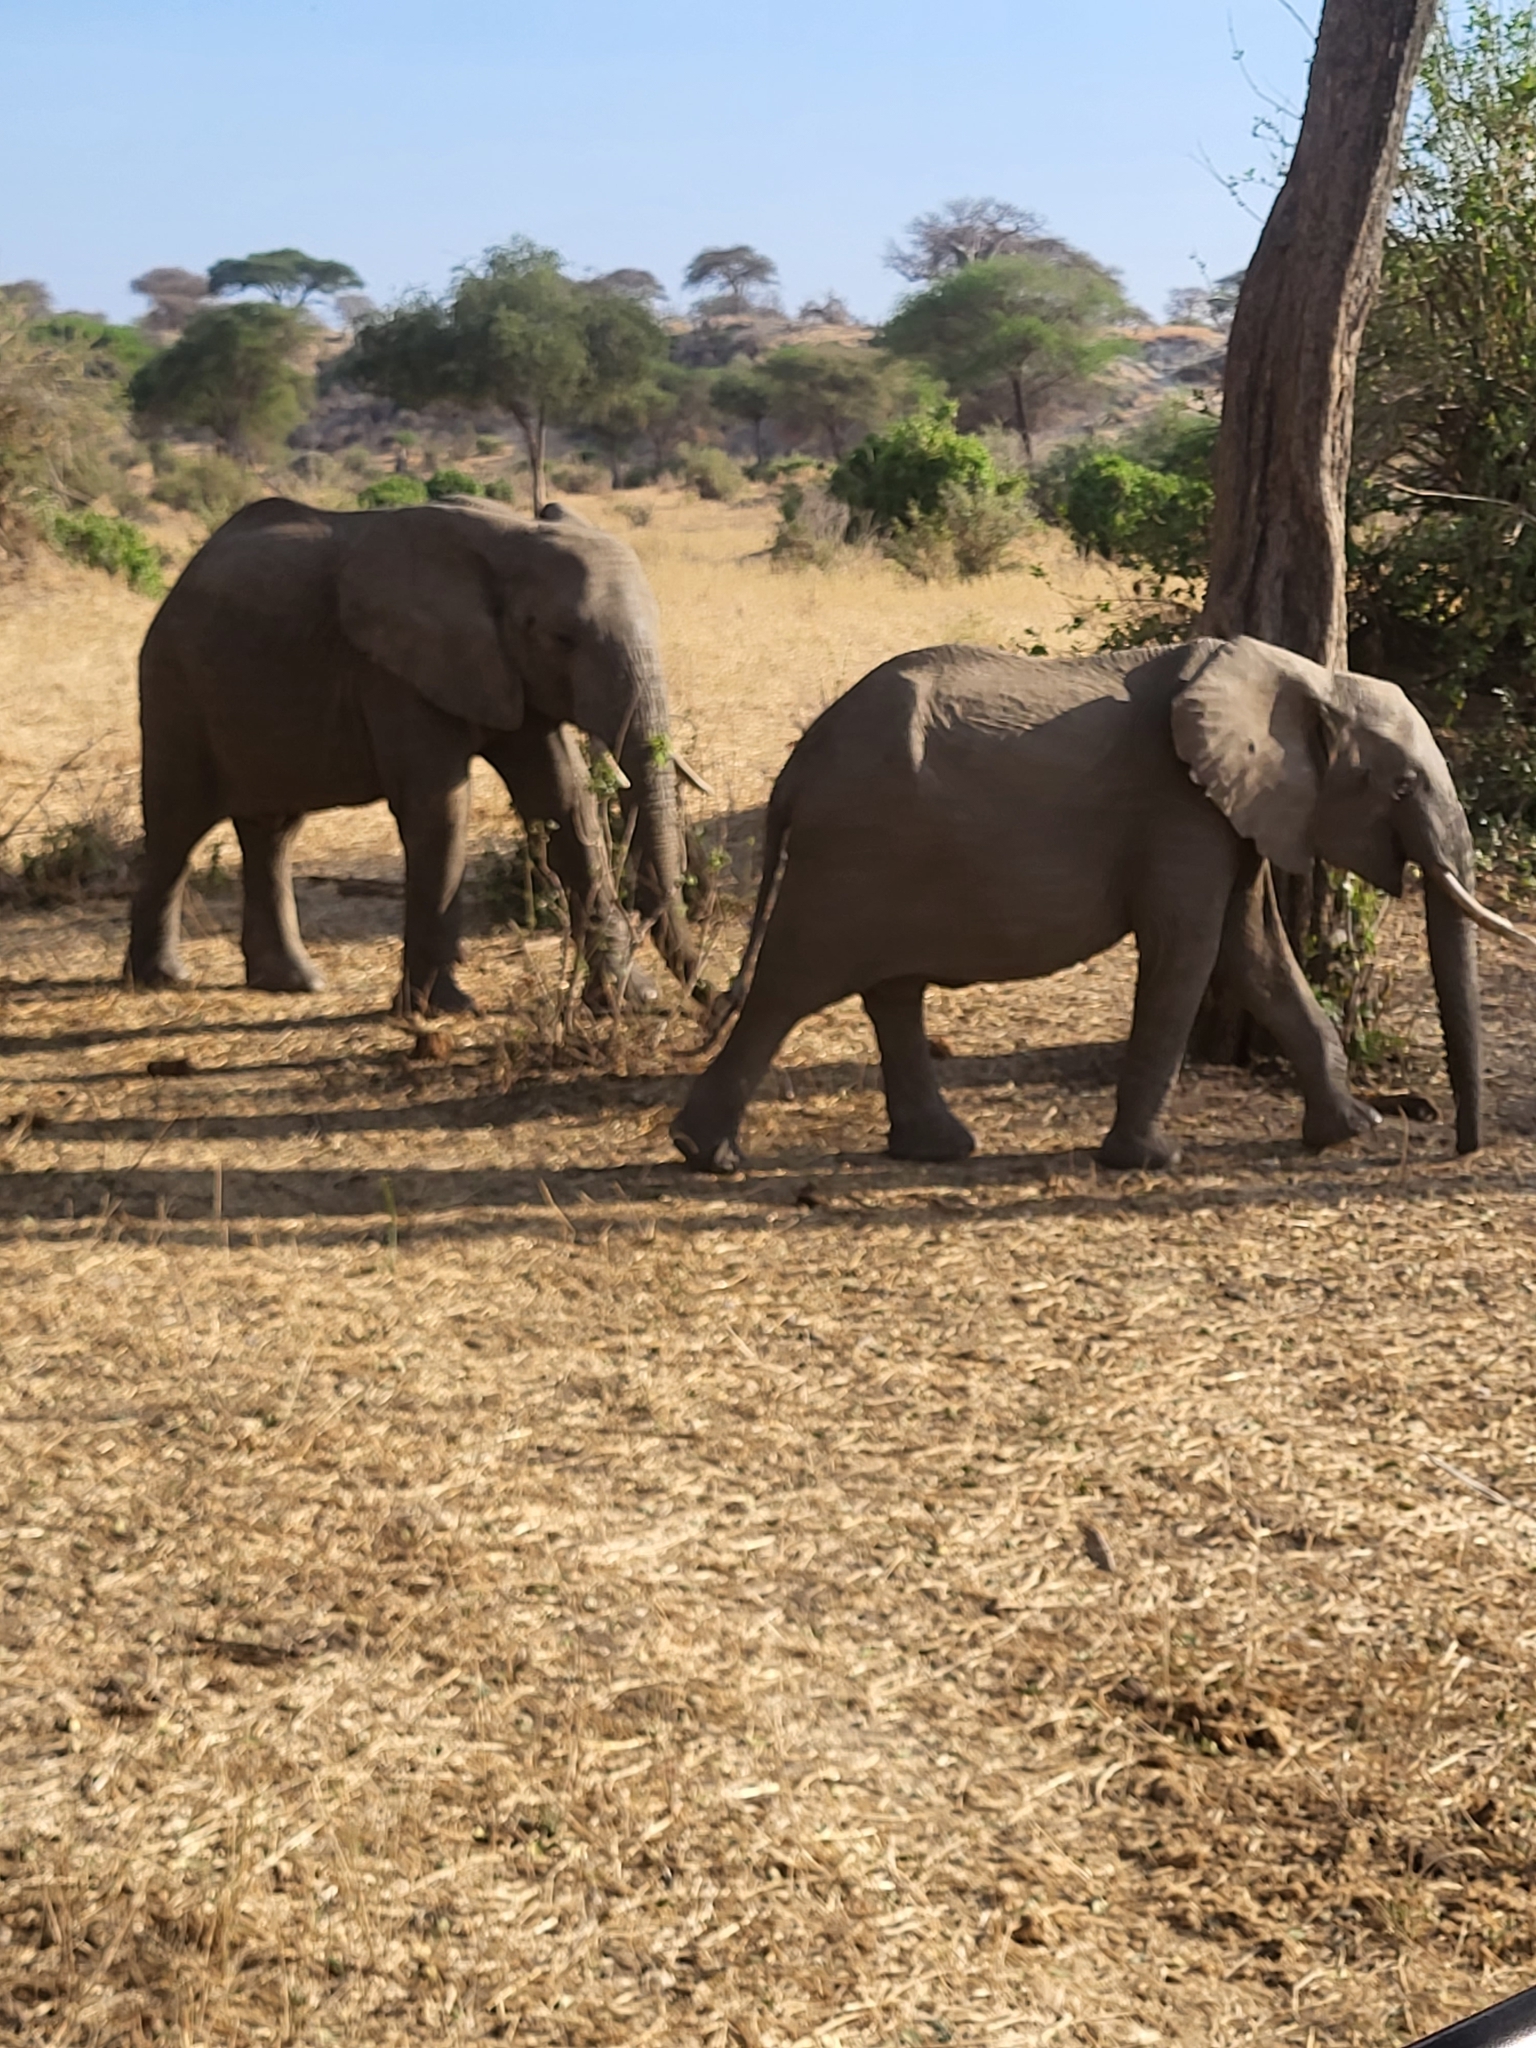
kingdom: Animalia
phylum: Chordata
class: Mammalia
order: Proboscidea
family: Elephantidae
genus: Loxodonta
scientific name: Loxodonta africana
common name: African elephant
